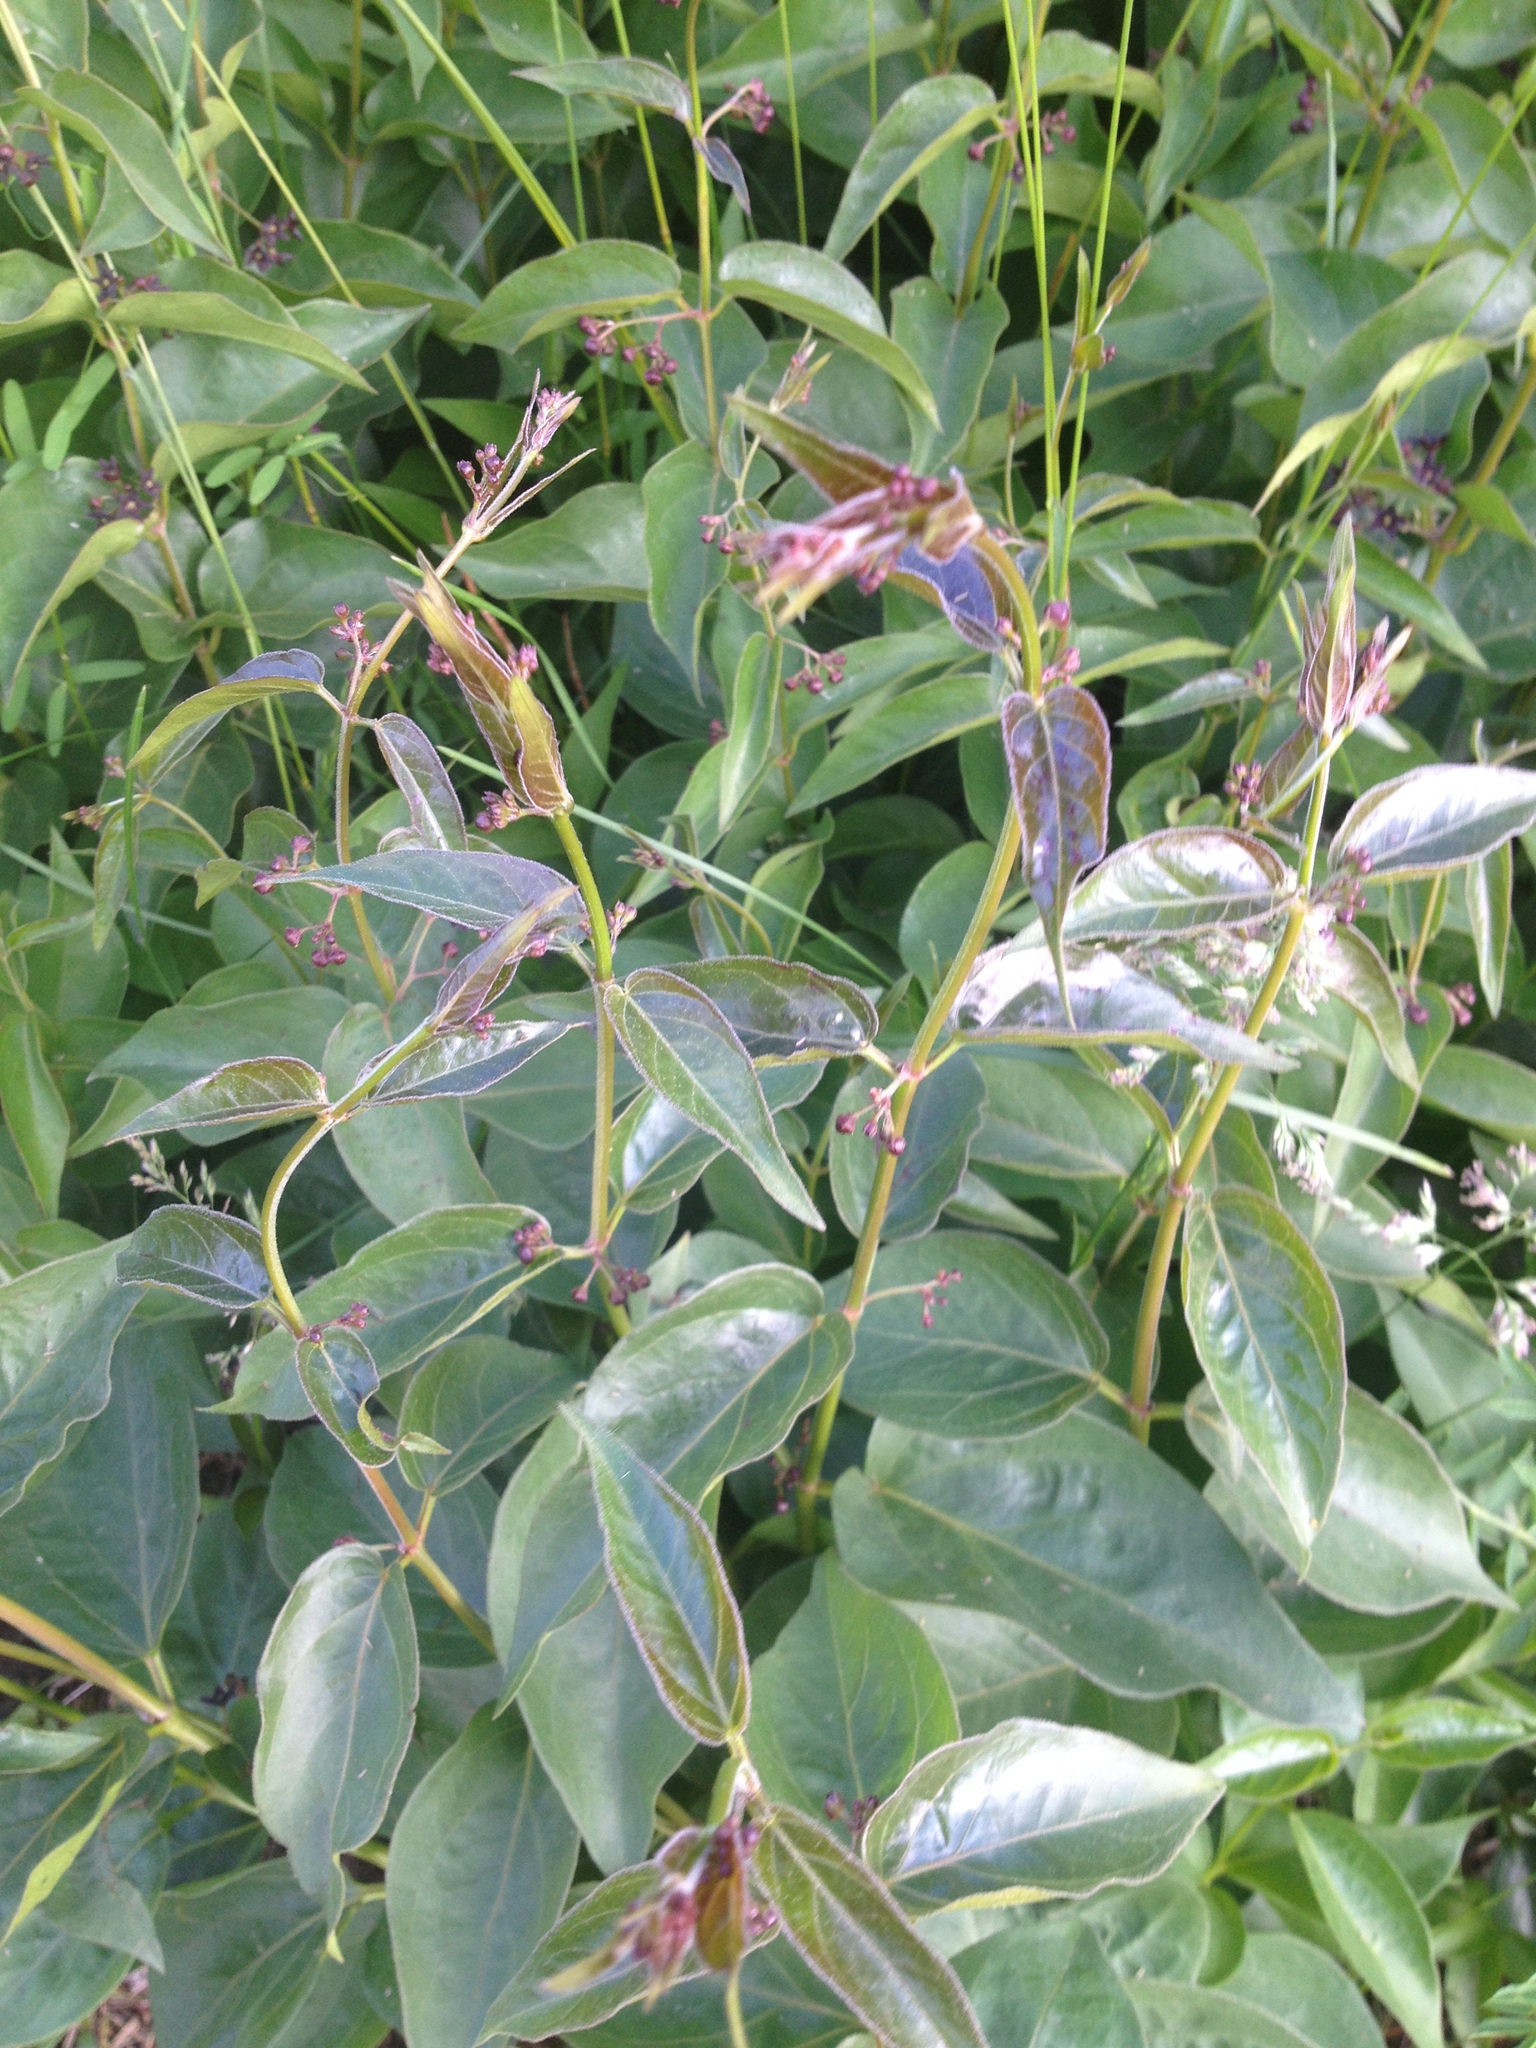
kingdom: Plantae
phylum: Tracheophyta
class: Magnoliopsida
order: Gentianales
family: Apocynaceae
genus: Vincetoxicum
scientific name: Vincetoxicum nigrum
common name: Black swallow-wort
